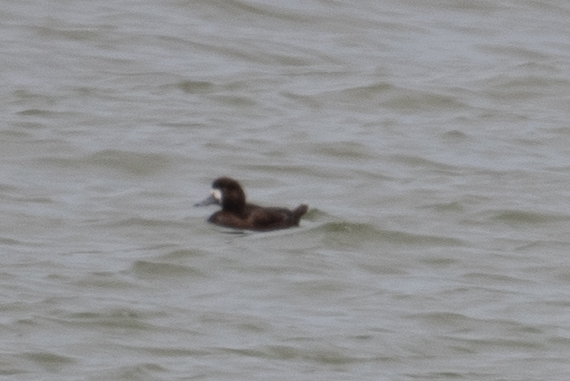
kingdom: Animalia
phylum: Chordata
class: Aves
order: Anseriformes
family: Anatidae
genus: Aythya
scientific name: Aythya marila
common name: Greater scaup
